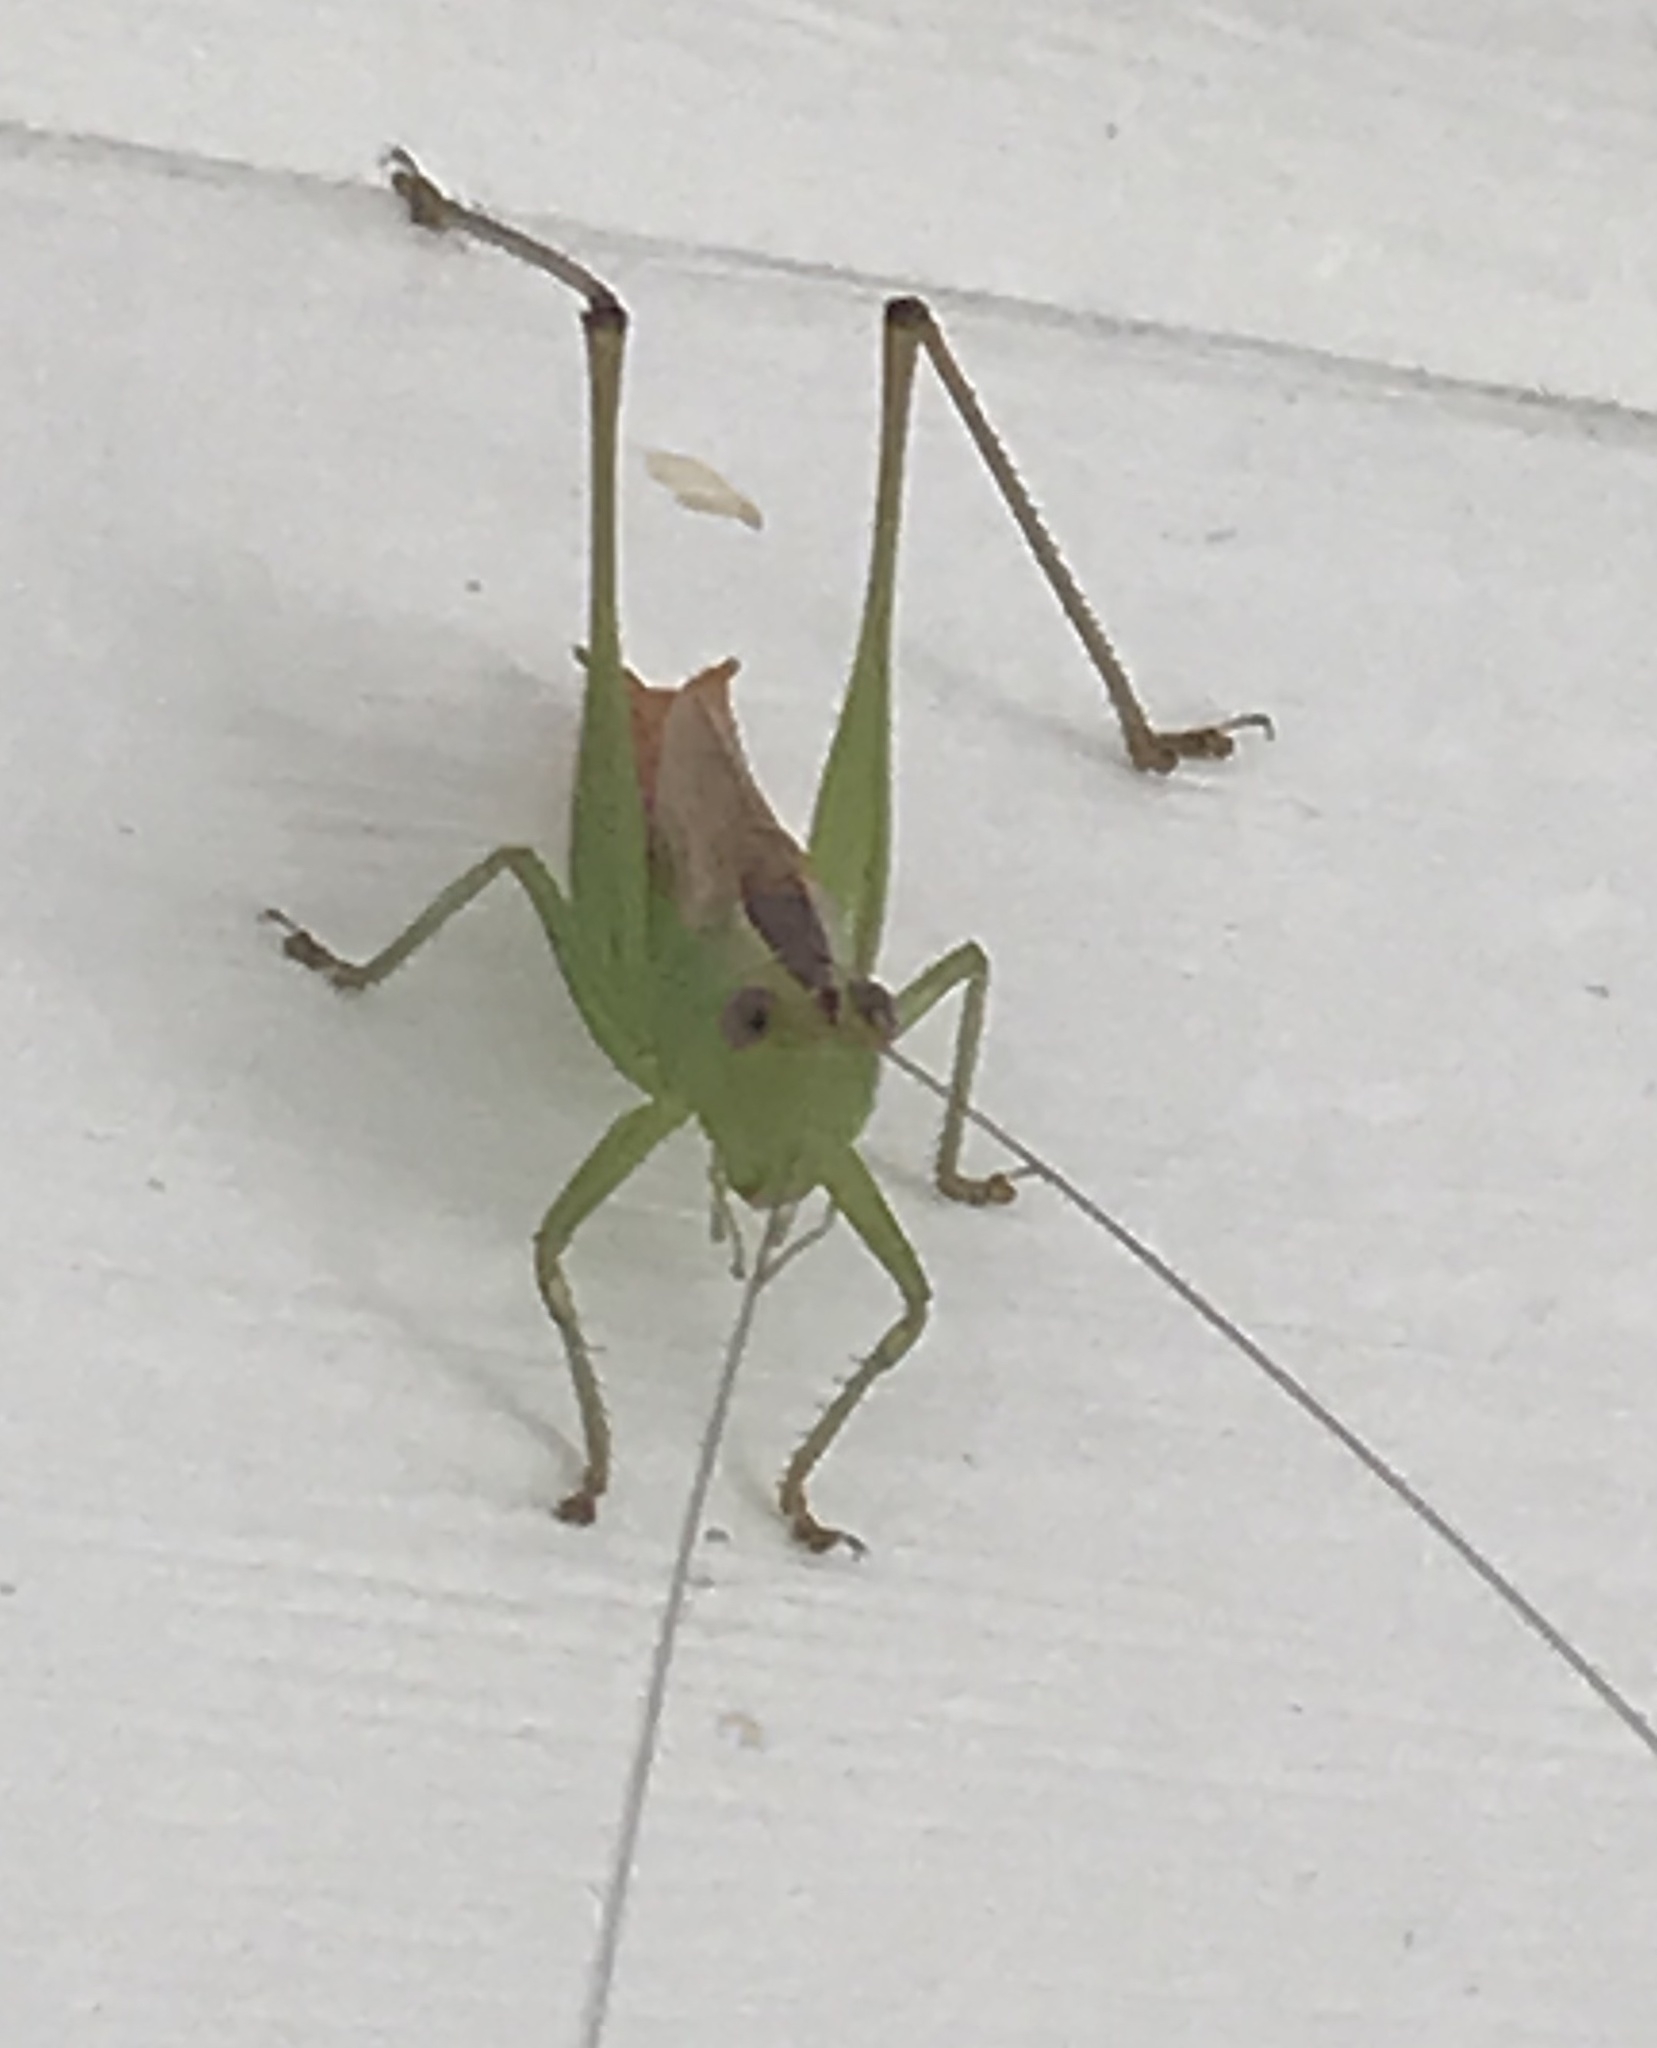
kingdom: Animalia
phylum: Arthropoda
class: Insecta
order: Orthoptera
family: Tettigoniidae
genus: Conocephalus
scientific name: Conocephalus brevipennis
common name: Short-winged meadow katydid
